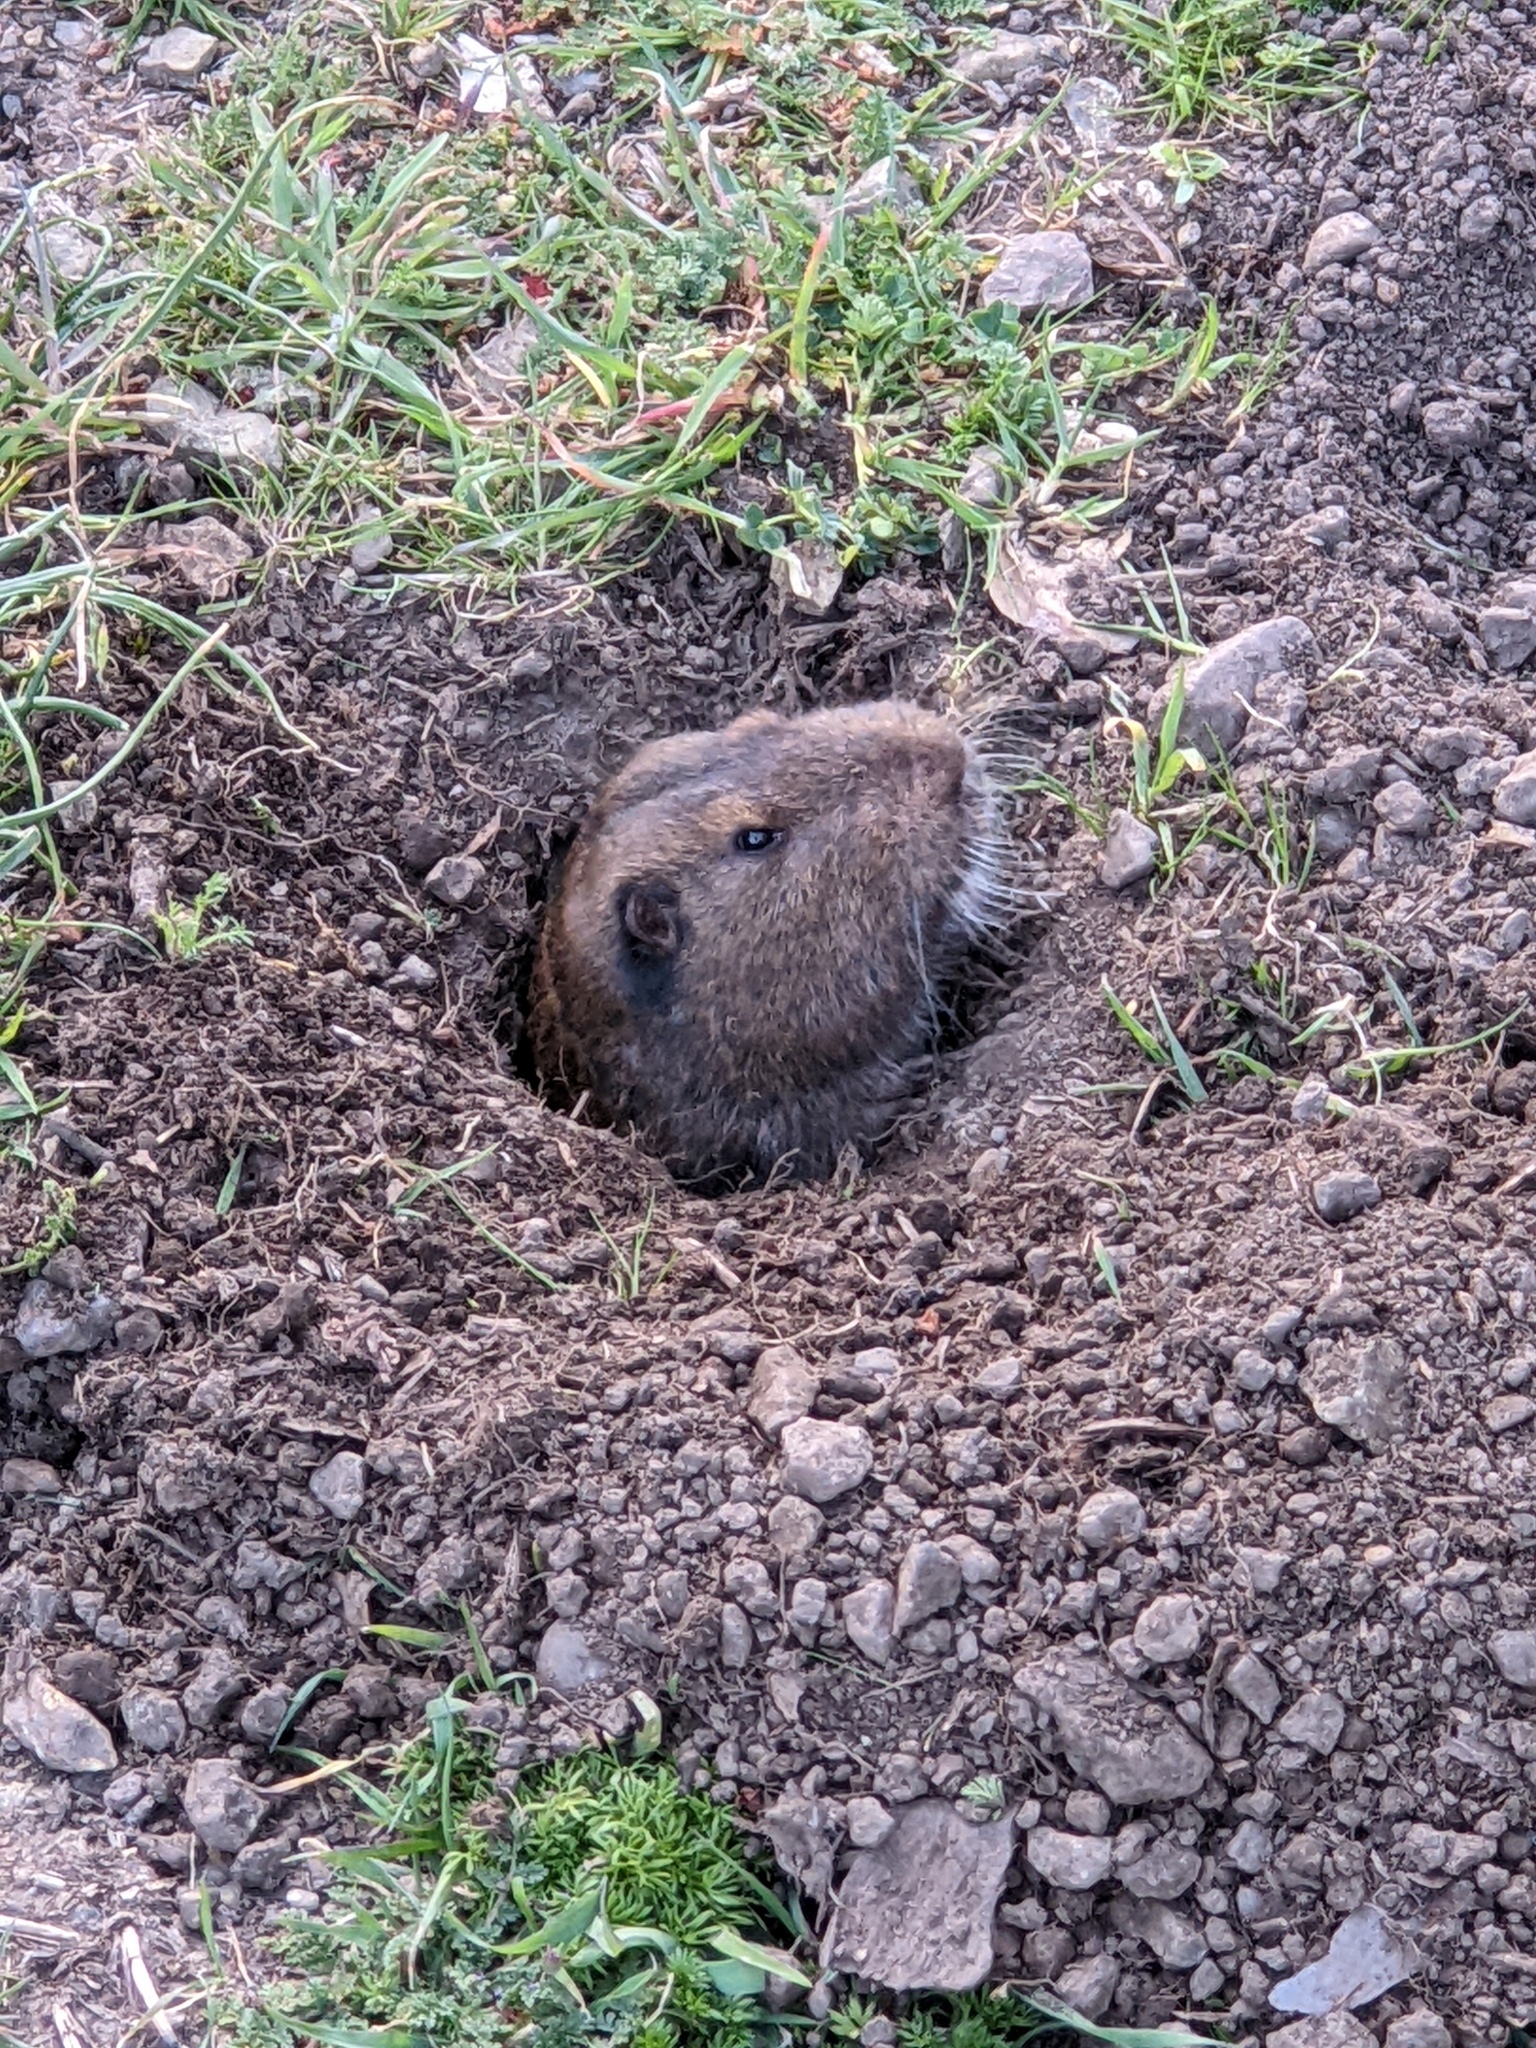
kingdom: Animalia
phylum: Chordata
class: Mammalia
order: Rodentia
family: Geomyidae
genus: Thomomys
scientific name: Thomomys bottae
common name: Botta's pocket gopher
